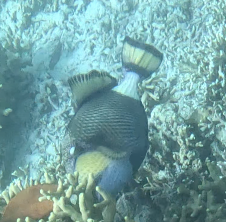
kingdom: Animalia
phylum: Chordata
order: Tetraodontiformes
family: Balistidae
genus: Balistoides
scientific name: Balistoides viridescens
